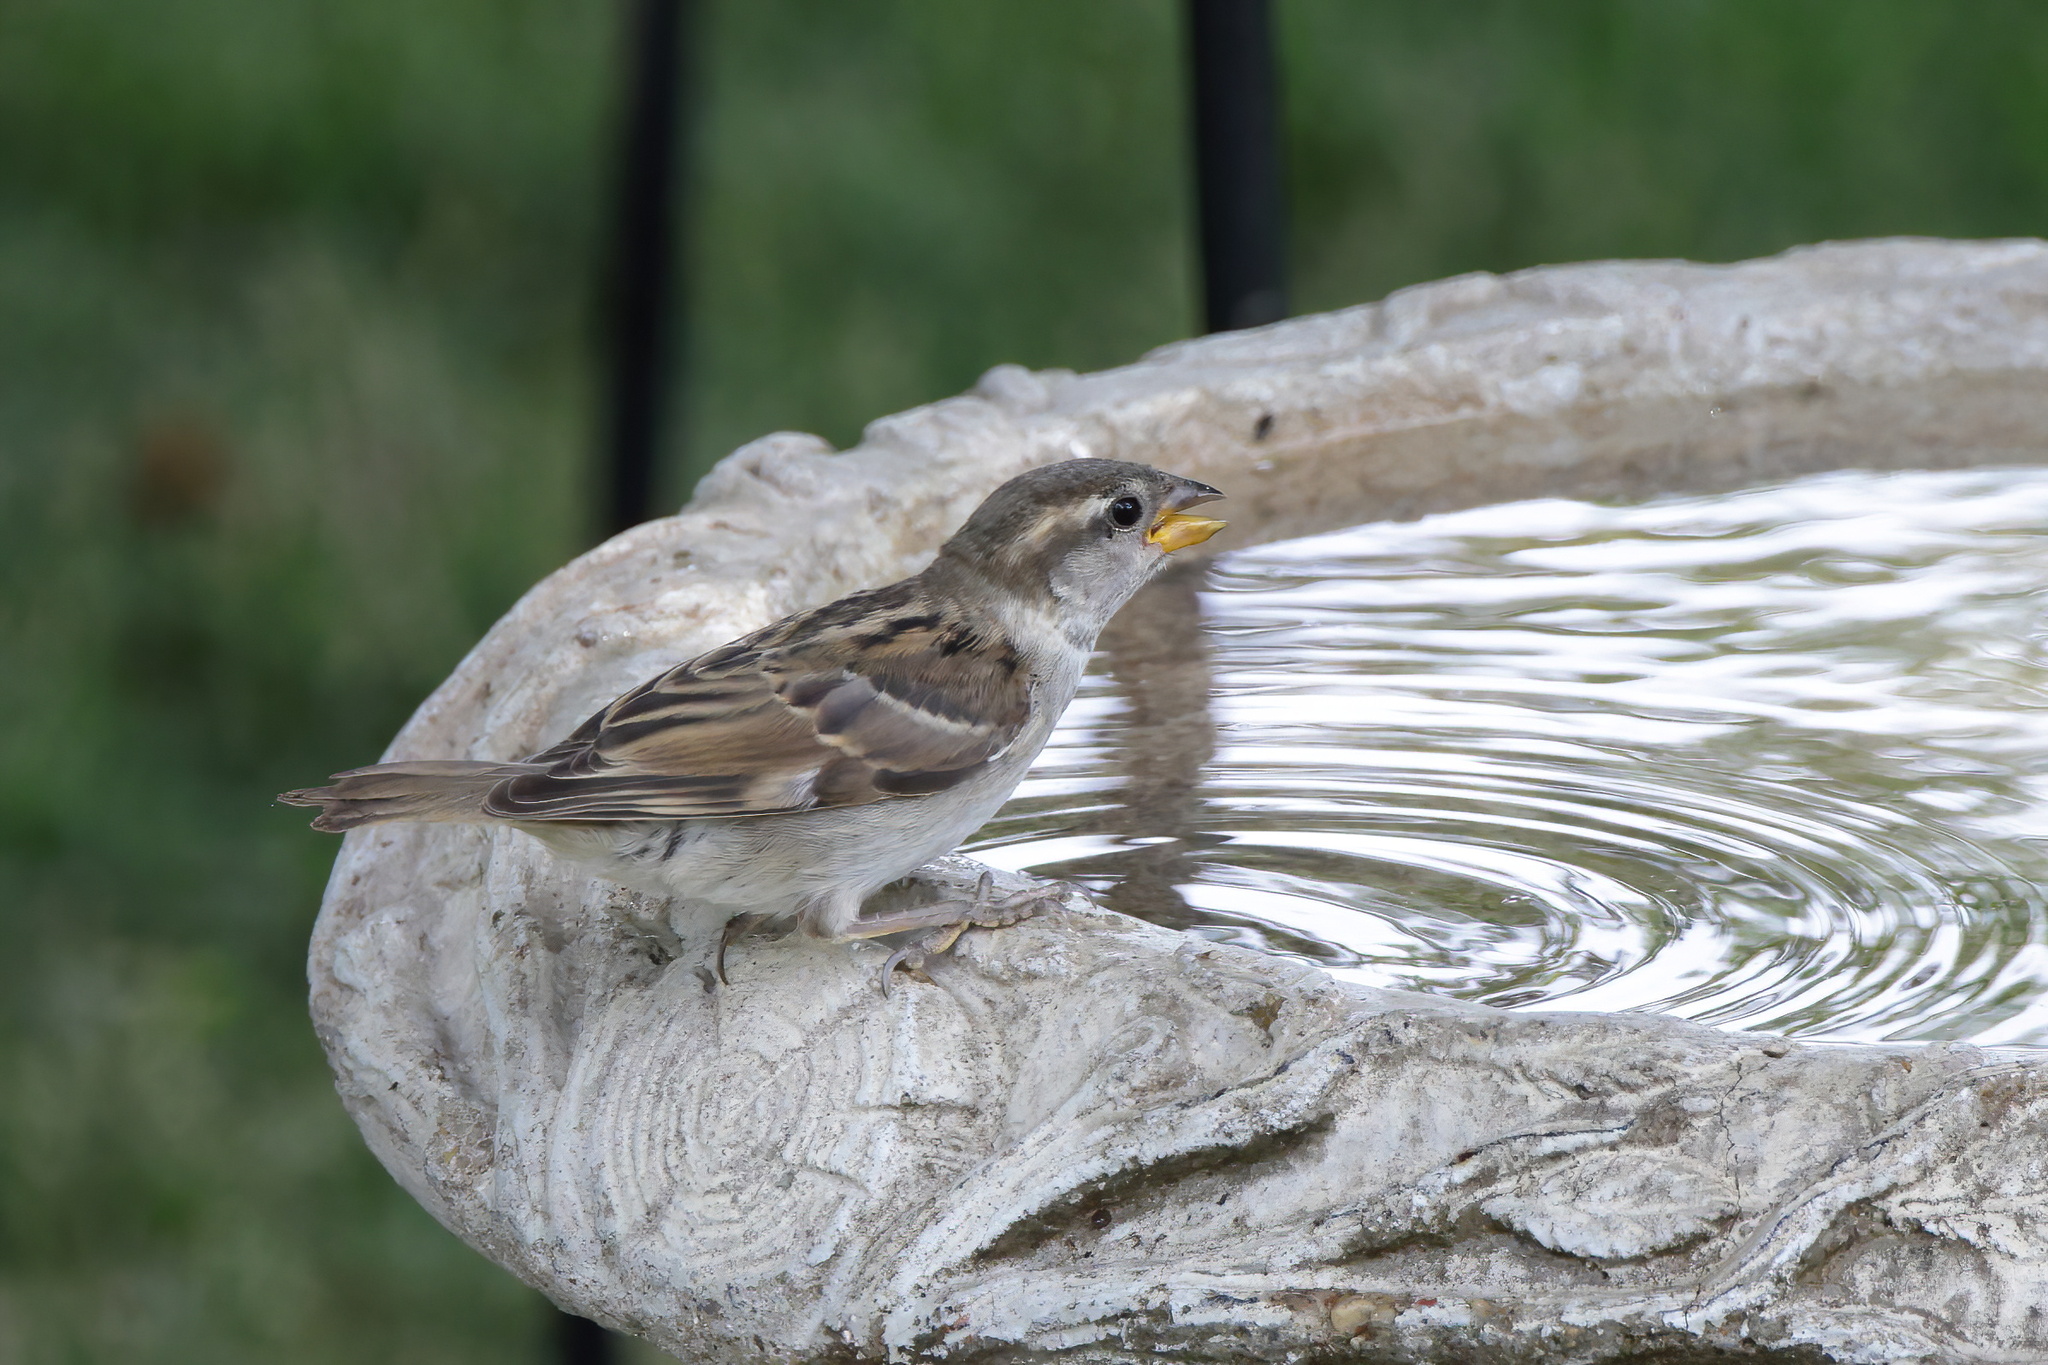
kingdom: Animalia
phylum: Chordata
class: Aves
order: Passeriformes
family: Passeridae
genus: Passer
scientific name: Passer domesticus
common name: House sparrow
